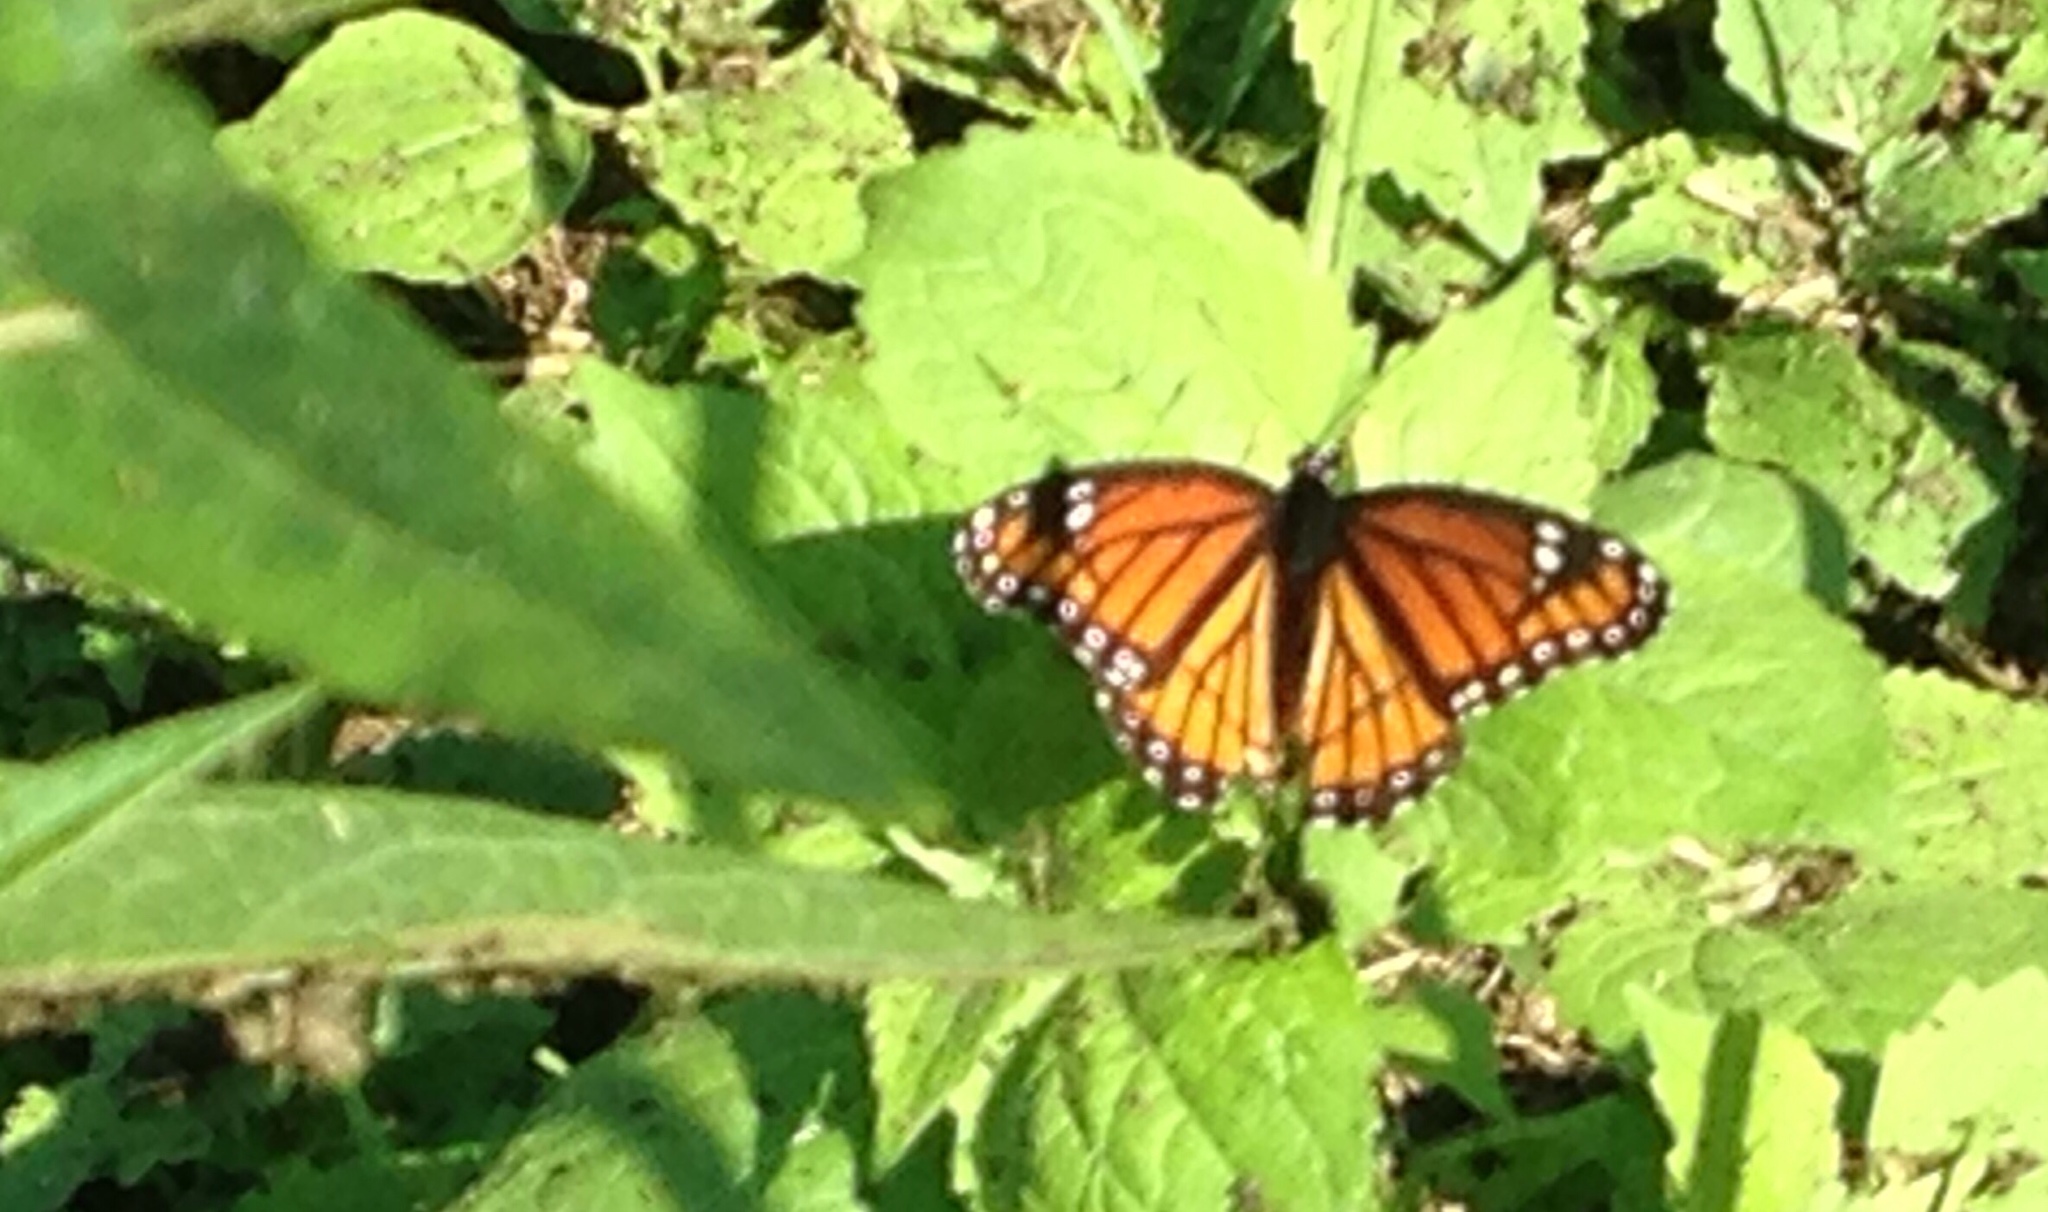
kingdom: Animalia
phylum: Arthropoda
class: Insecta
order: Lepidoptera
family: Nymphalidae
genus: Limenitis
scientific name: Limenitis archippus
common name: Viceroy
